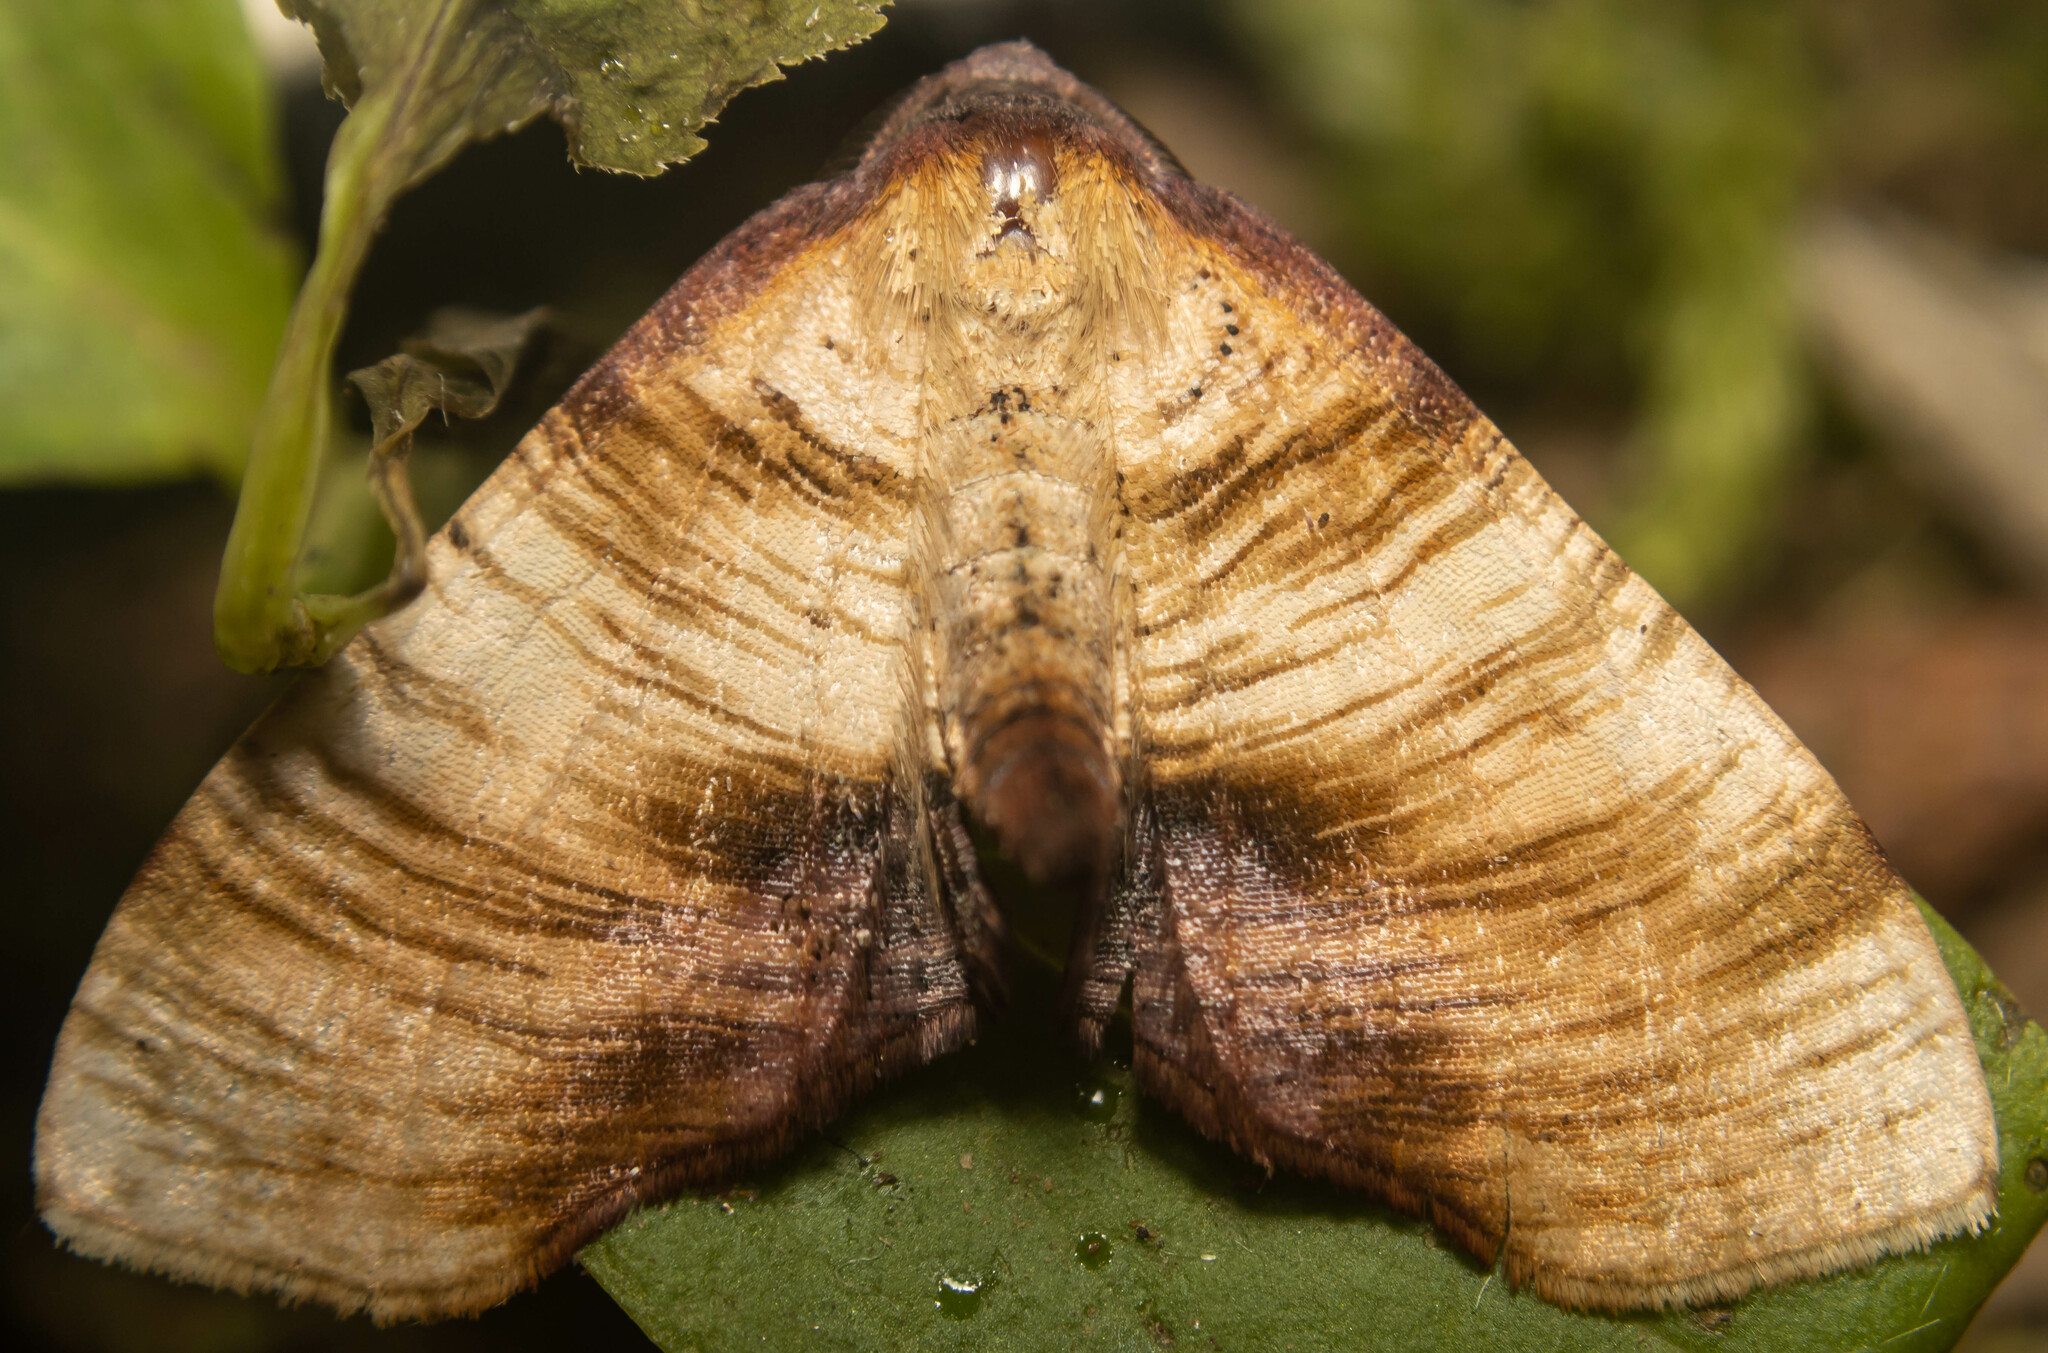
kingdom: Animalia
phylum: Arthropoda
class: Insecta
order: Lepidoptera
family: Geometridae
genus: Plagodis
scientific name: Plagodis dolabraria
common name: Scorched wing
